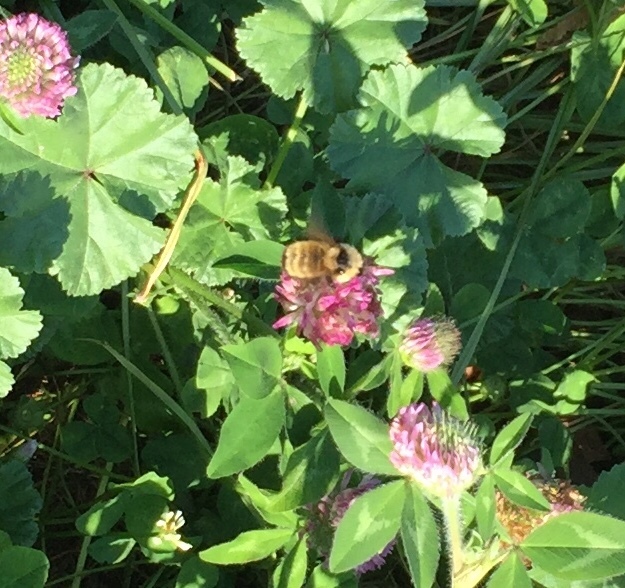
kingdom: Animalia
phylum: Arthropoda
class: Insecta
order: Hymenoptera
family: Apidae
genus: Bombus
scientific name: Bombus fervidus
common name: Yellow bumble bee
